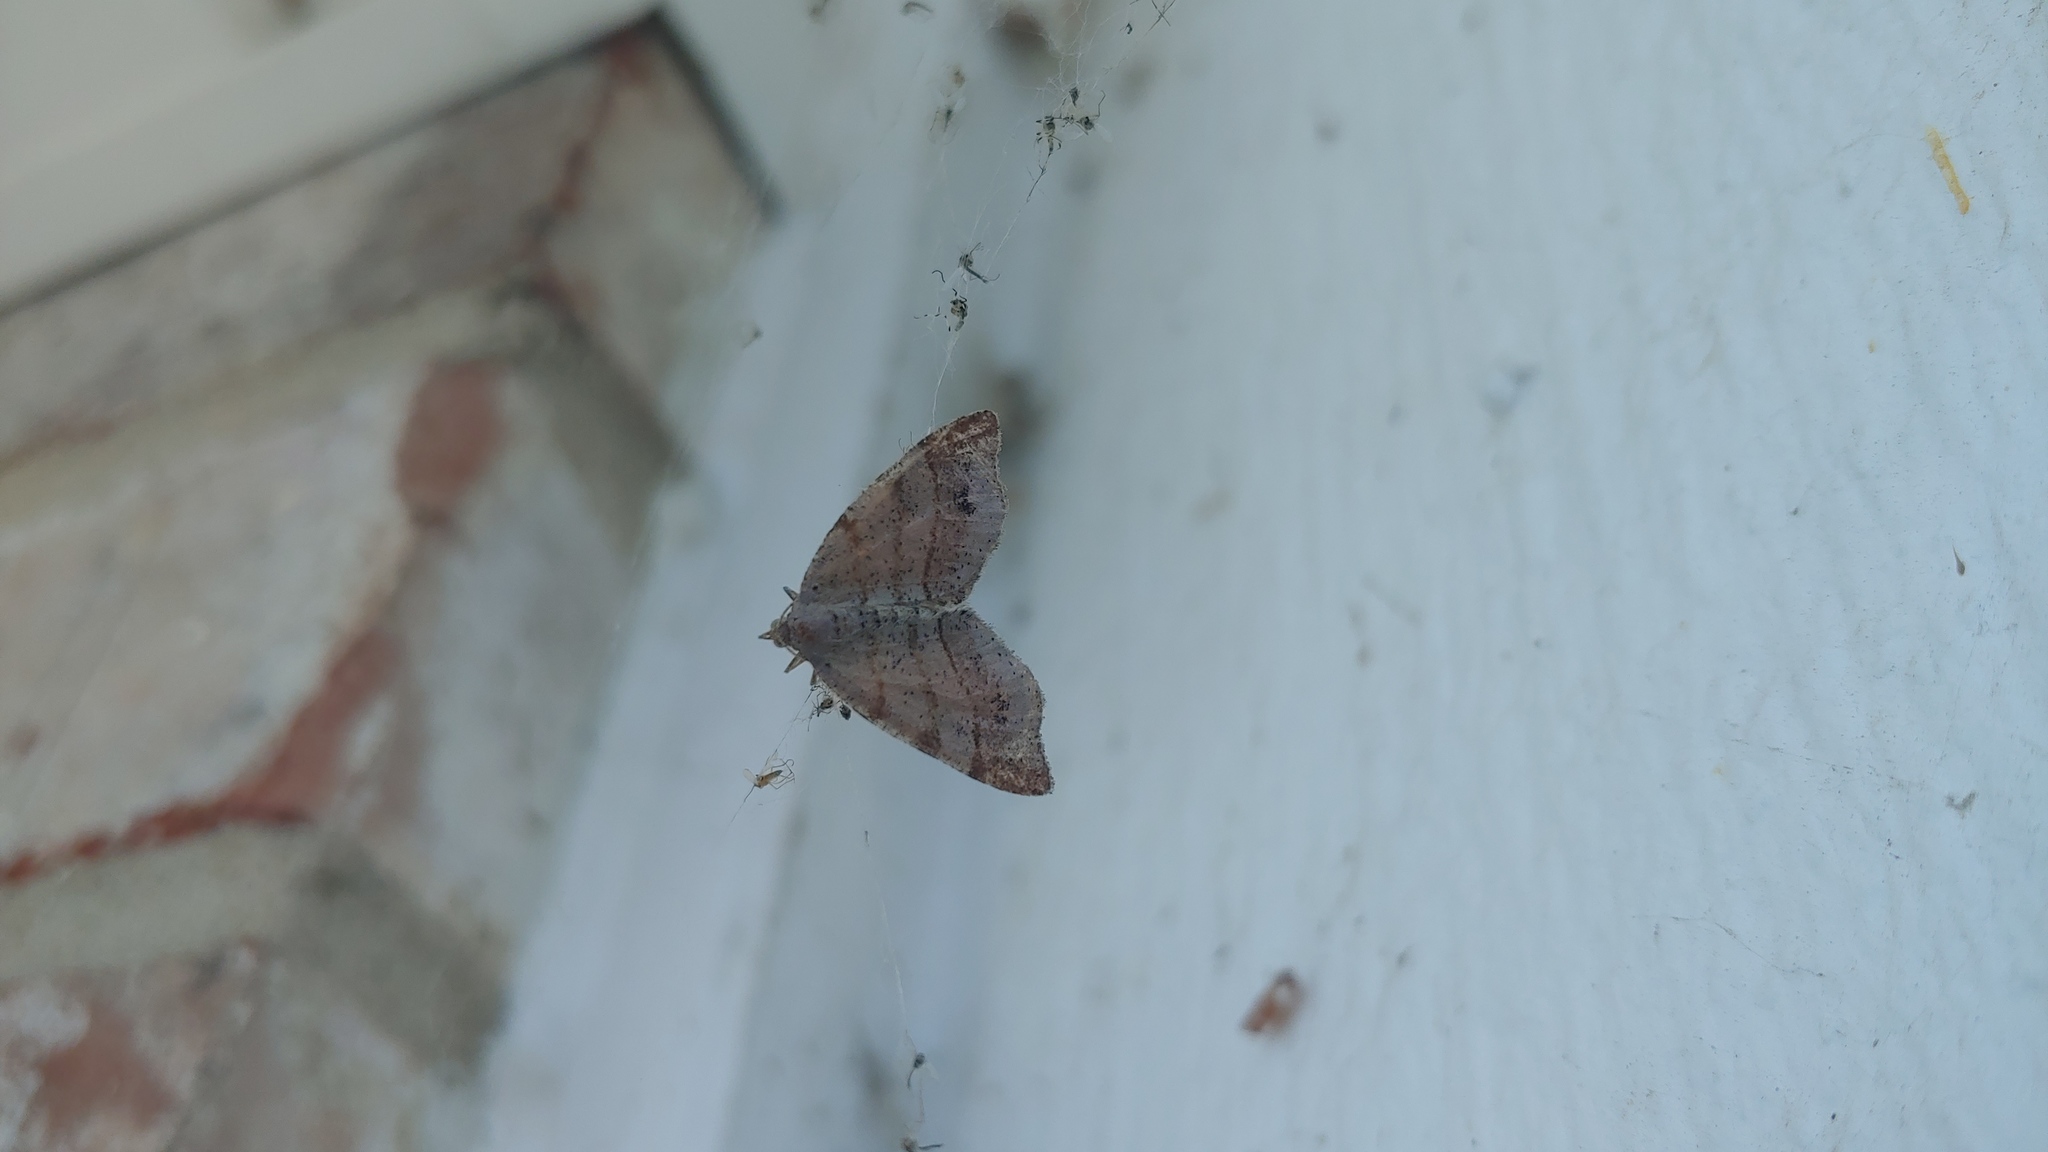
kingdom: Animalia
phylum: Arthropoda
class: Insecta
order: Lepidoptera
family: Geometridae
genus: Mellilla
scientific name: Mellilla xanthometata
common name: Orange wing moth
